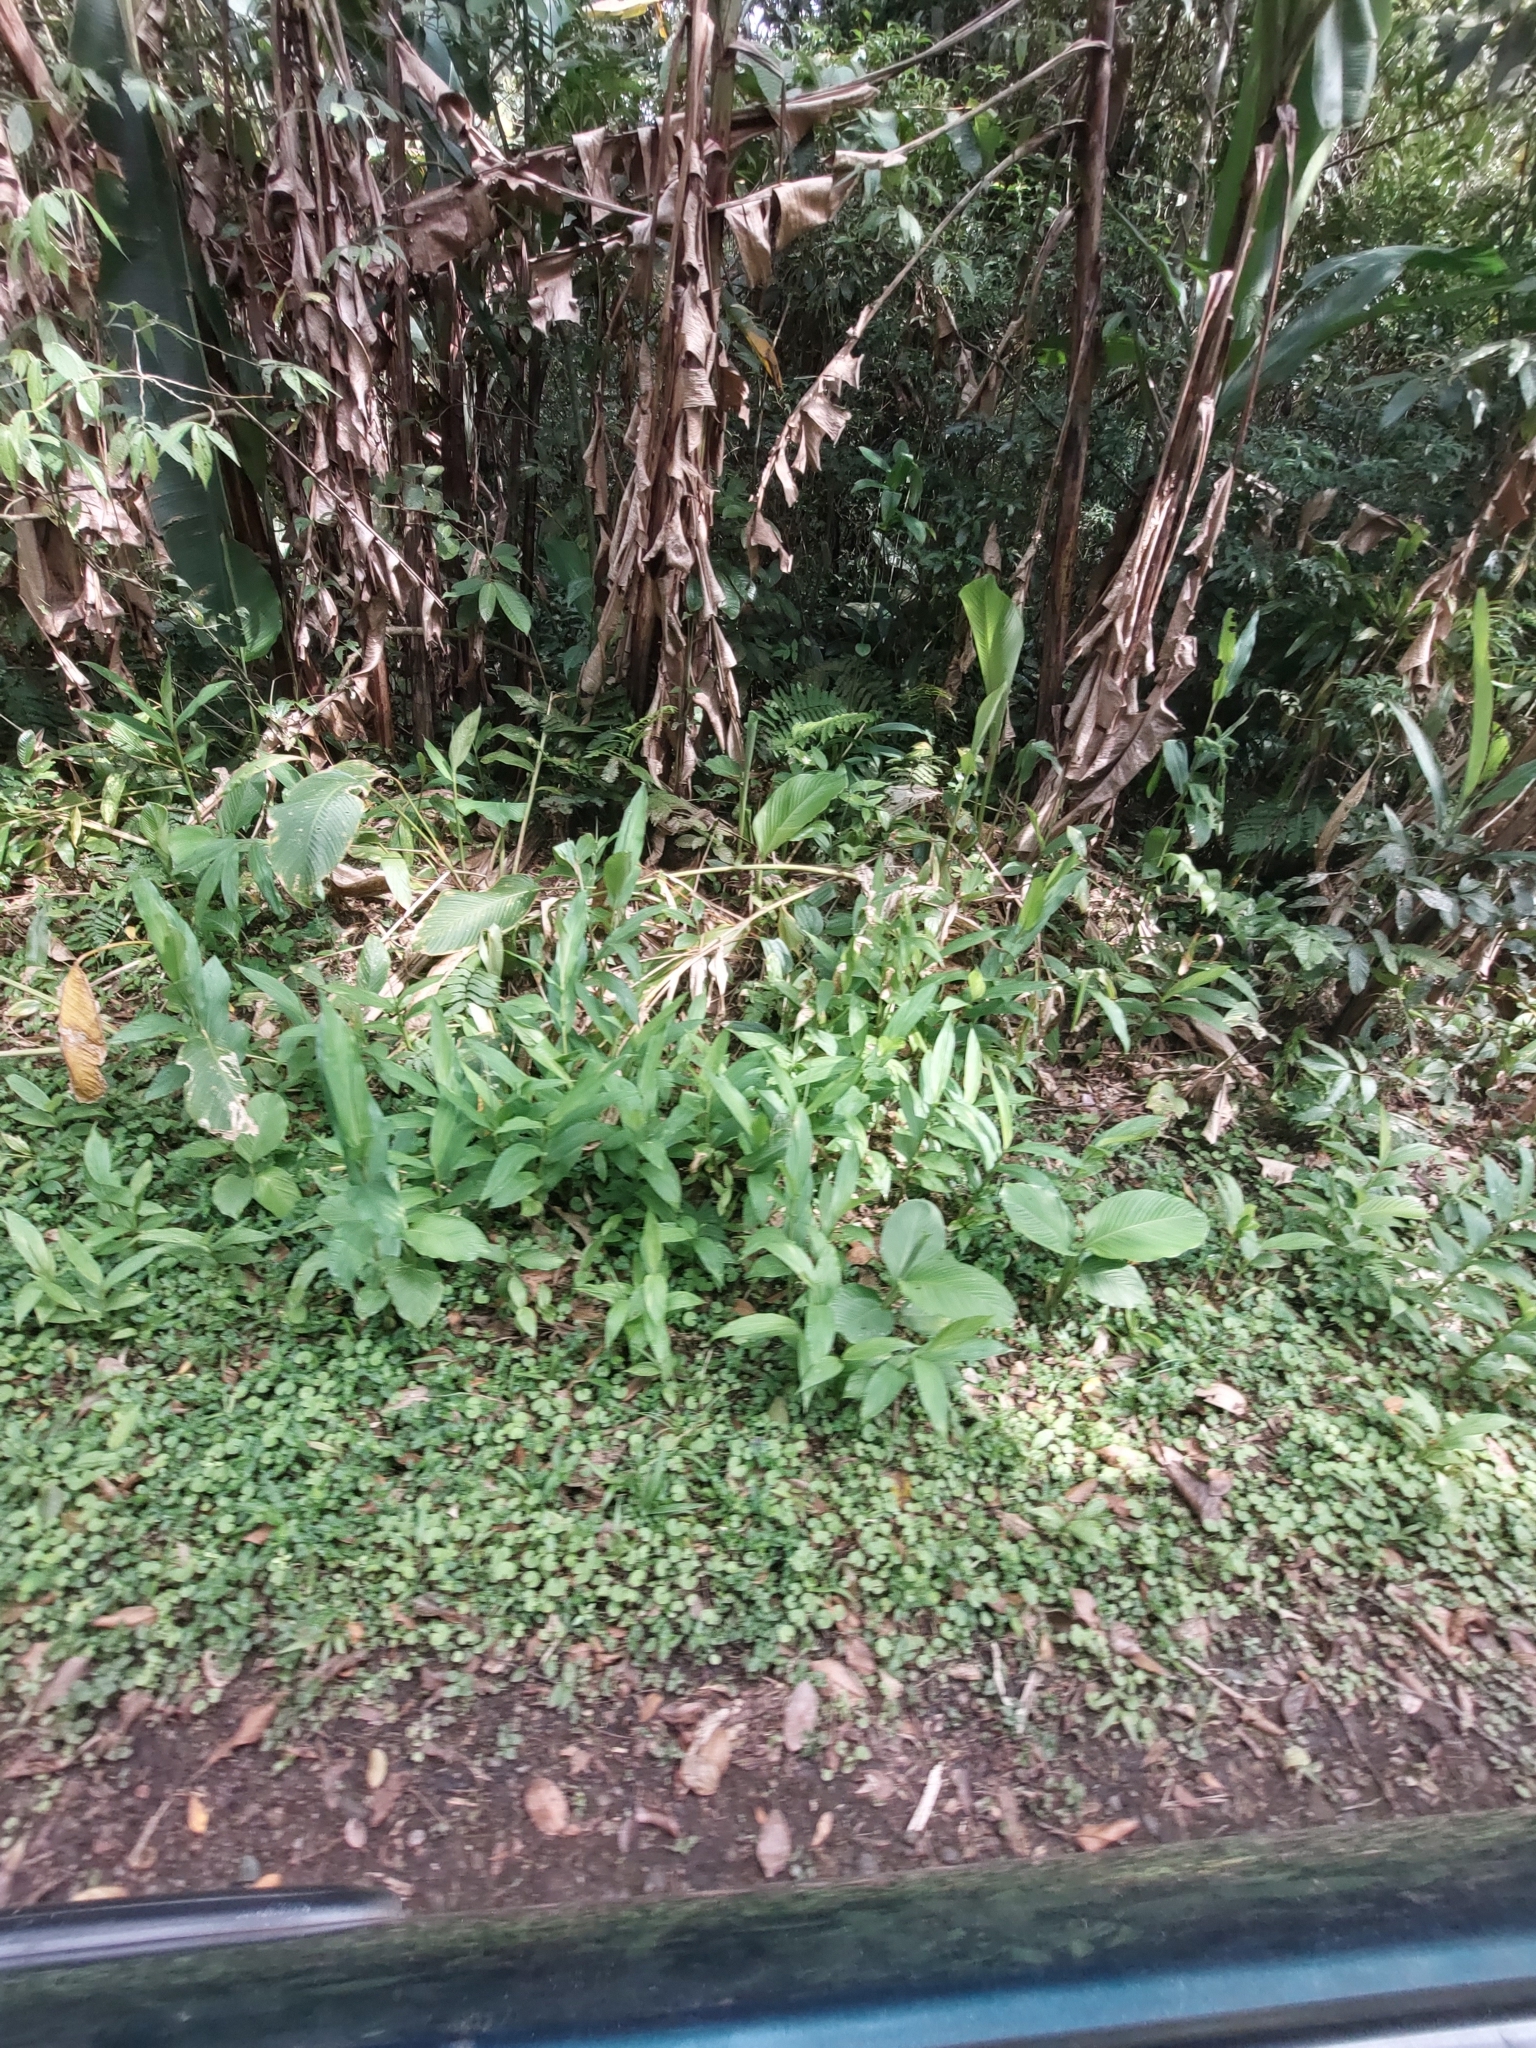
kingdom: Plantae
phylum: Tracheophyta
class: Liliopsida
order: Zingiberales
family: Zingiberaceae
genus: Hedychium
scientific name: Hedychium coronarium
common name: White garland-lily
